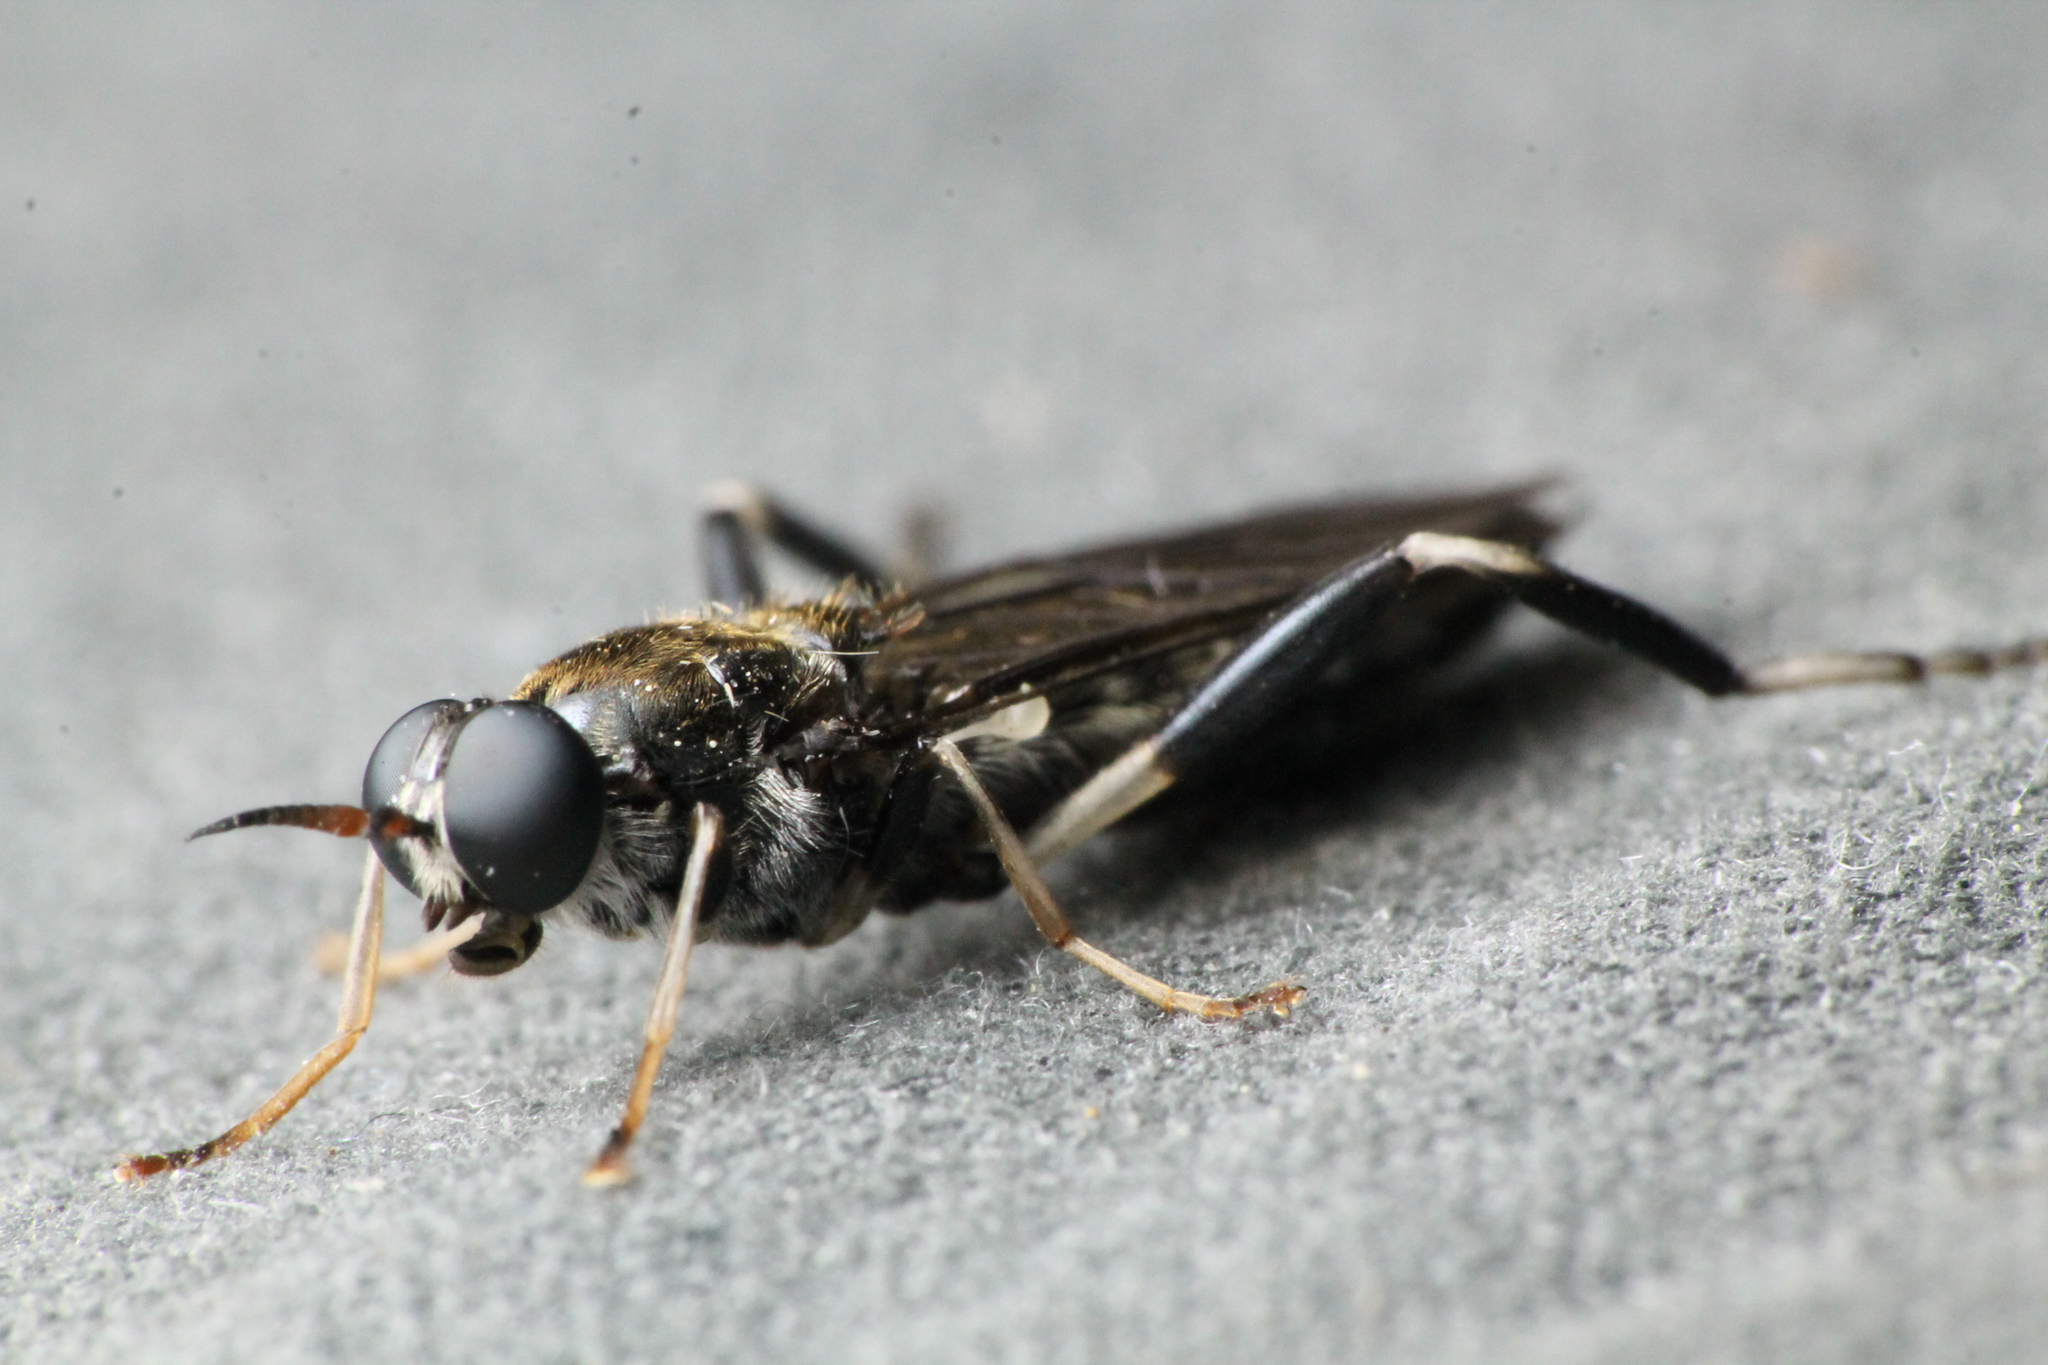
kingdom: Animalia
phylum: Arthropoda
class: Insecta
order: Diptera
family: Stratiomyidae
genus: Exaireta
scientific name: Exaireta spinigera
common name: Blue soldier fly
